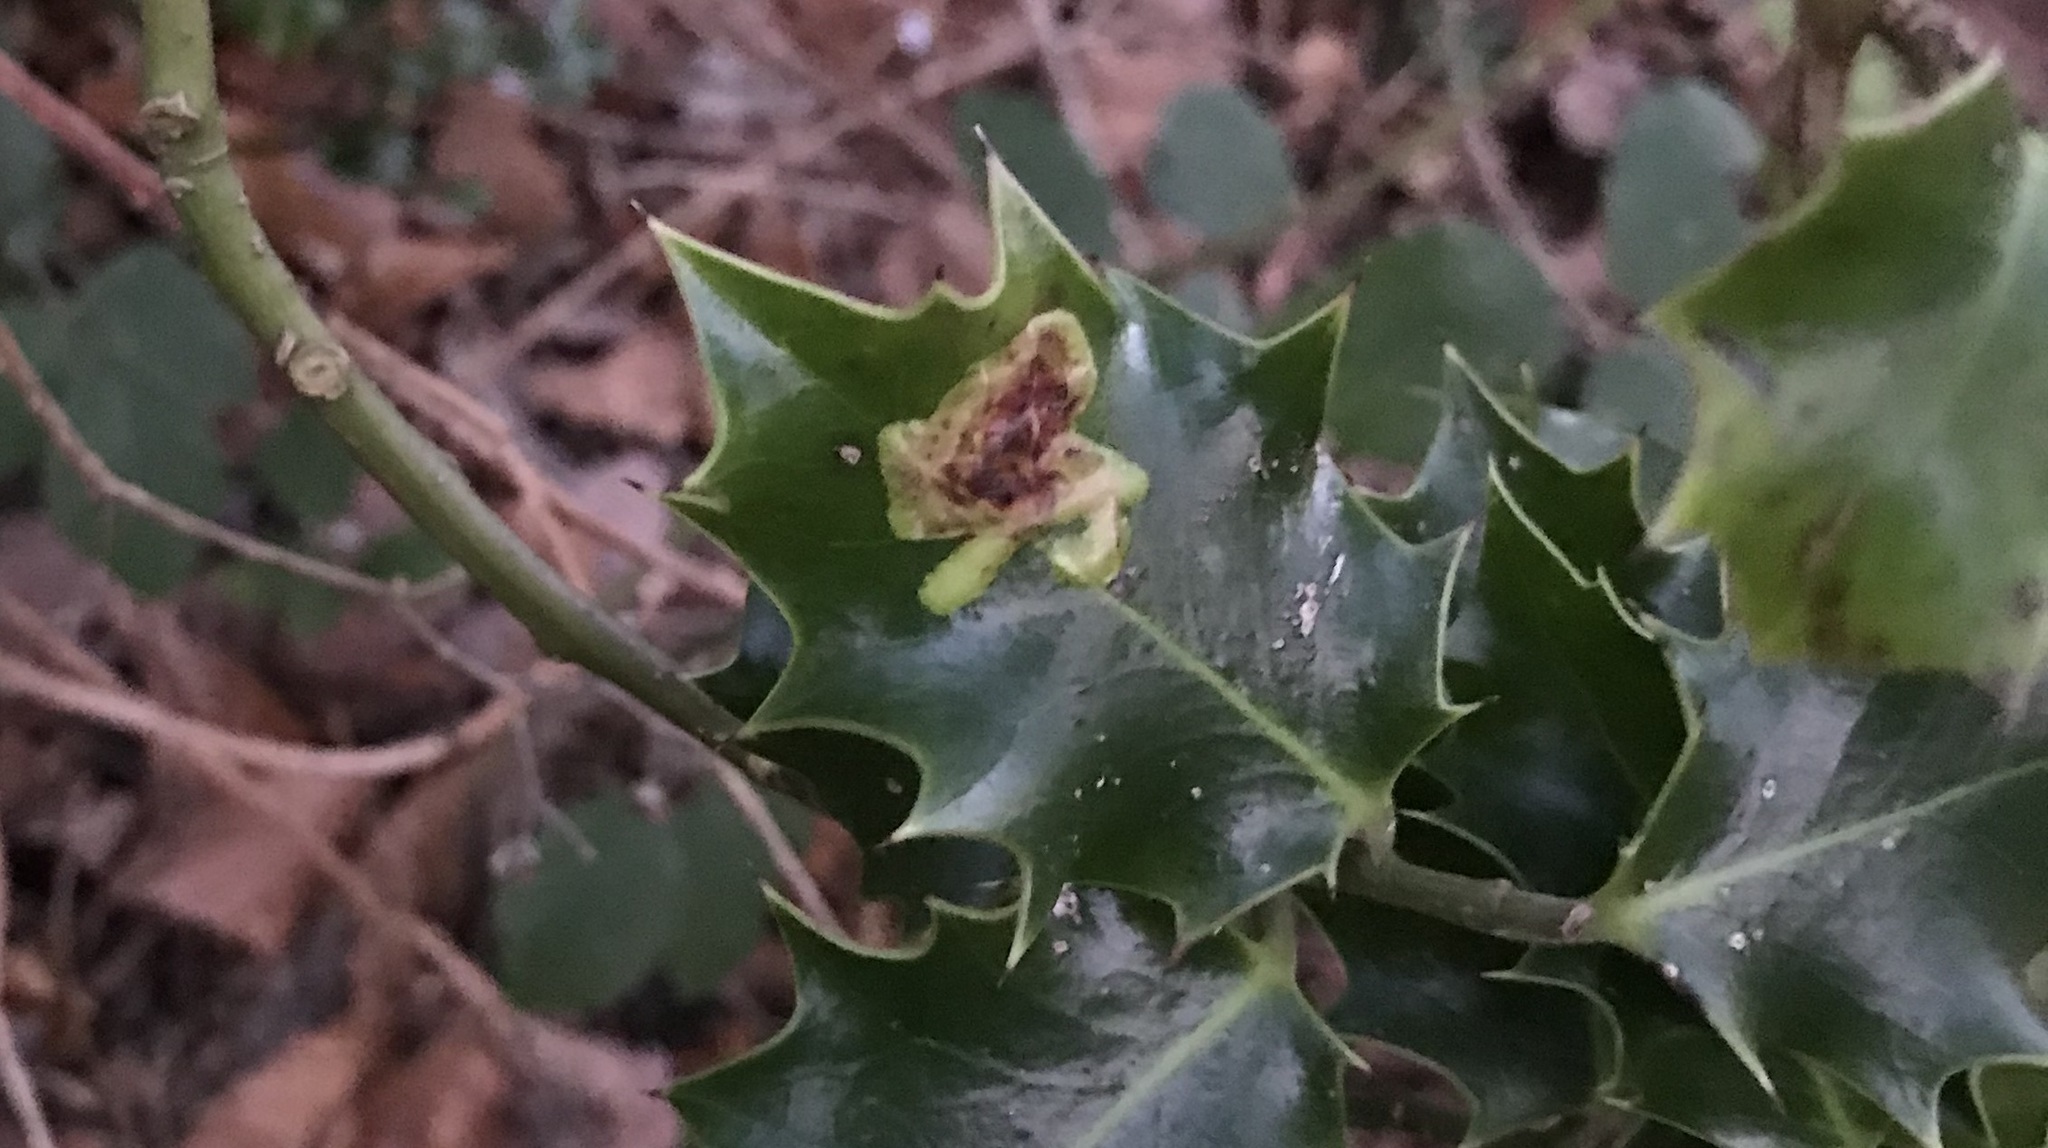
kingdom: Animalia
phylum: Arthropoda
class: Insecta
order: Diptera
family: Agromyzidae
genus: Phytomyza
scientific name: Phytomyza ilicis
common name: Holly leafminer
